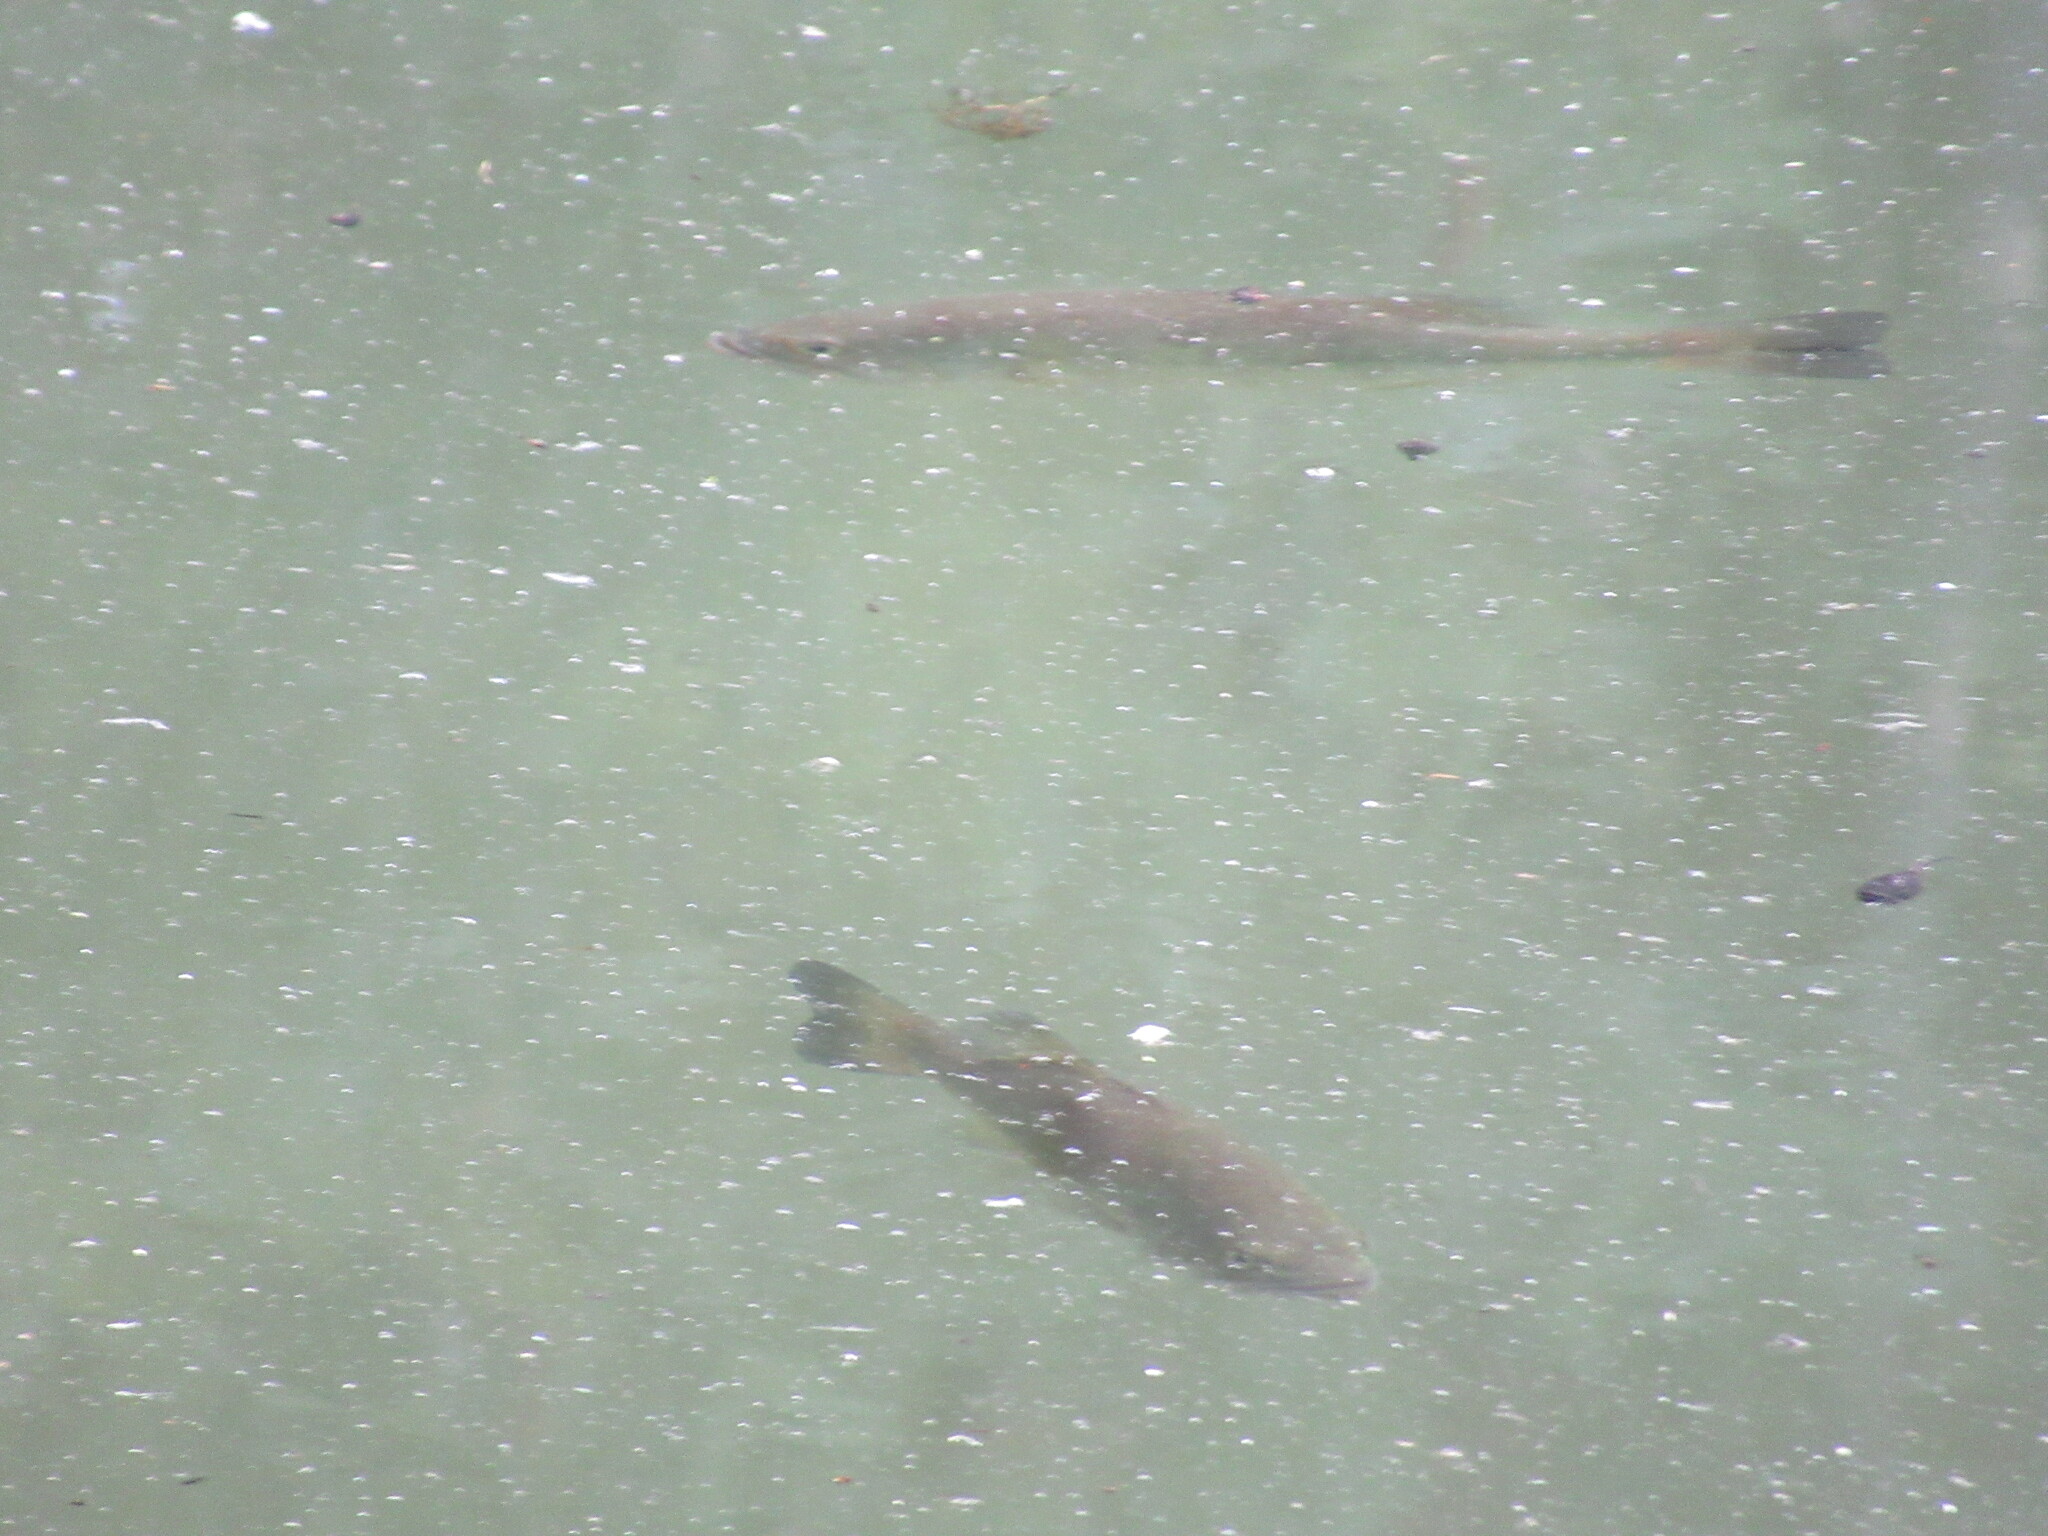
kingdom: Animalia
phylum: Chordata
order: Perciformes
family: Centrarchidae
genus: Micropterus
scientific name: Micropterus
